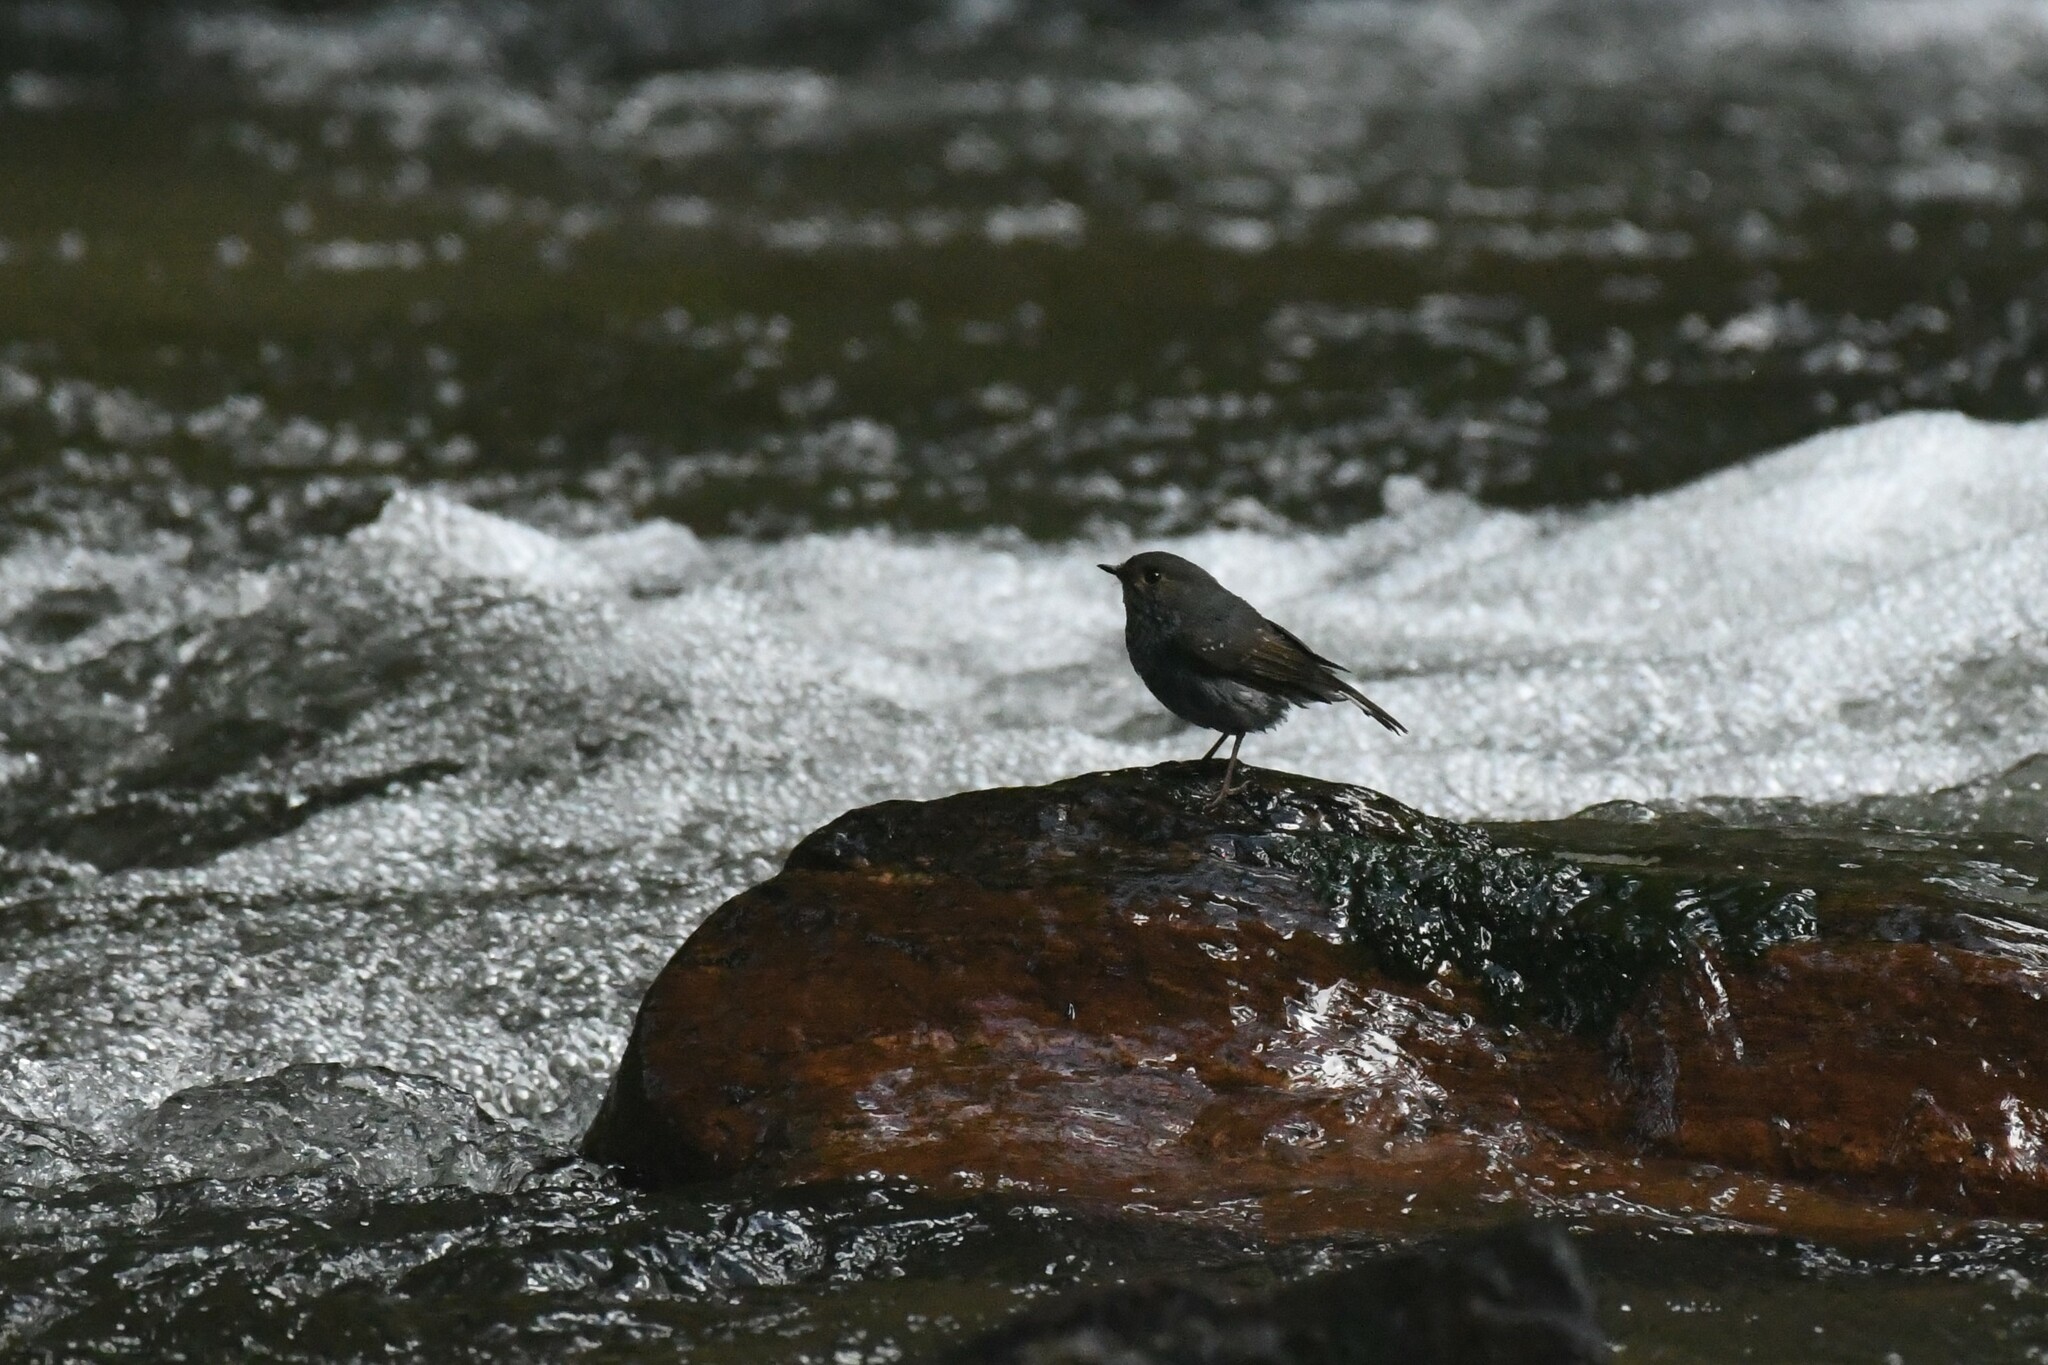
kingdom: Animalia
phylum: Chordata
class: Aves
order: Passeriformes
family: Muscicapidae
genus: Phoenicurus
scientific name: Phoenicurus fuliginosus
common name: Plumbeous water redstart
